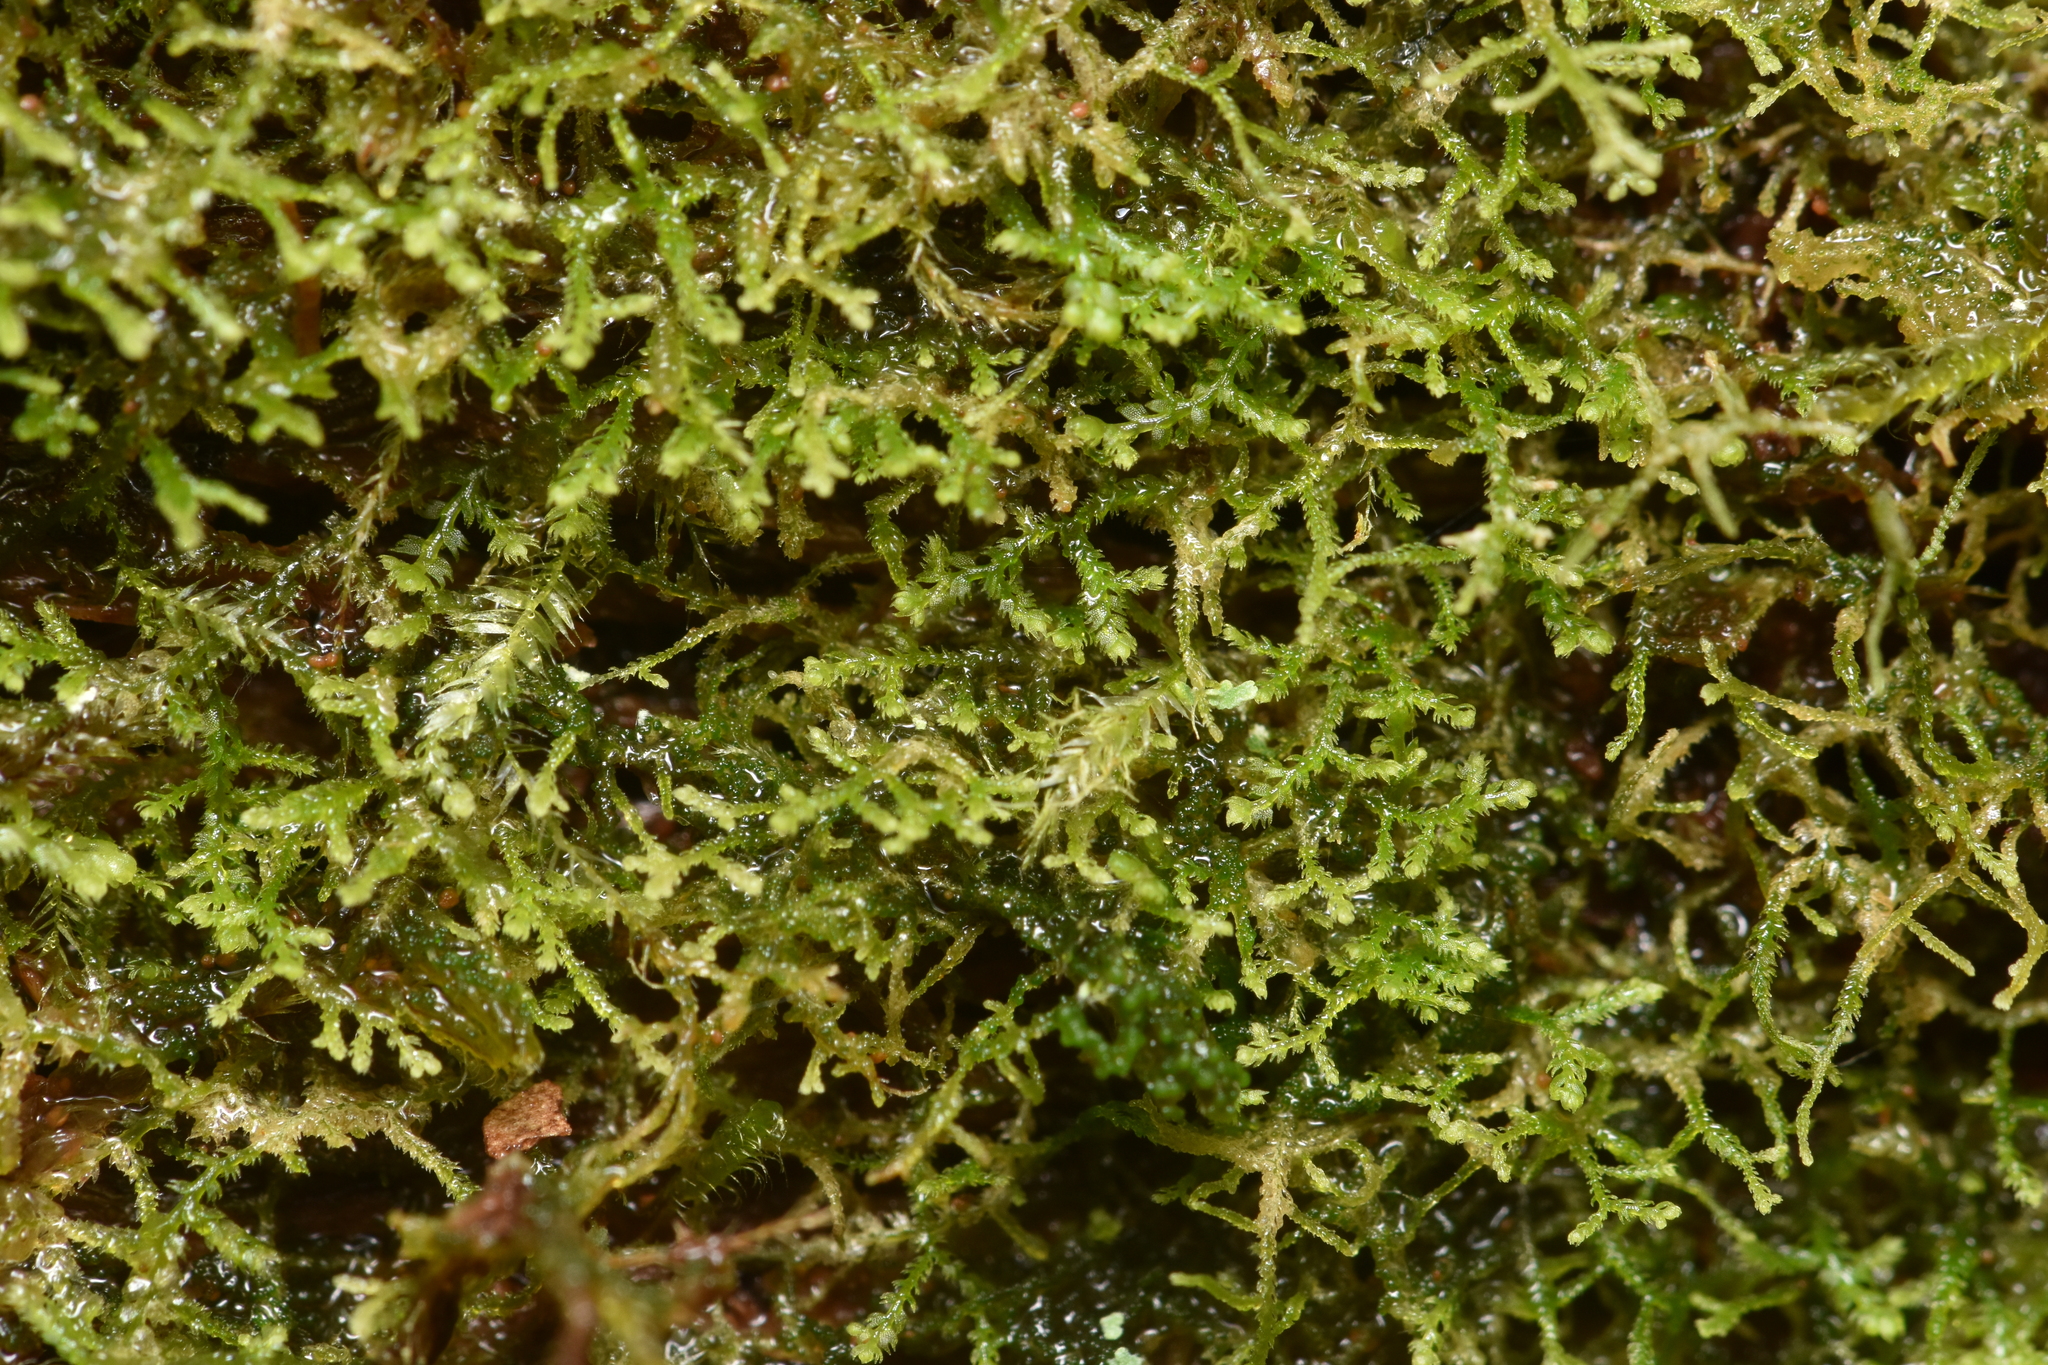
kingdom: Plantae
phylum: Marchantiophyta
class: Jungermanniopsida
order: Jungermanniales
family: Lepidoziaceae
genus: Lepidozia
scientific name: Lepidozia reptans
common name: Creeping fingerwort
